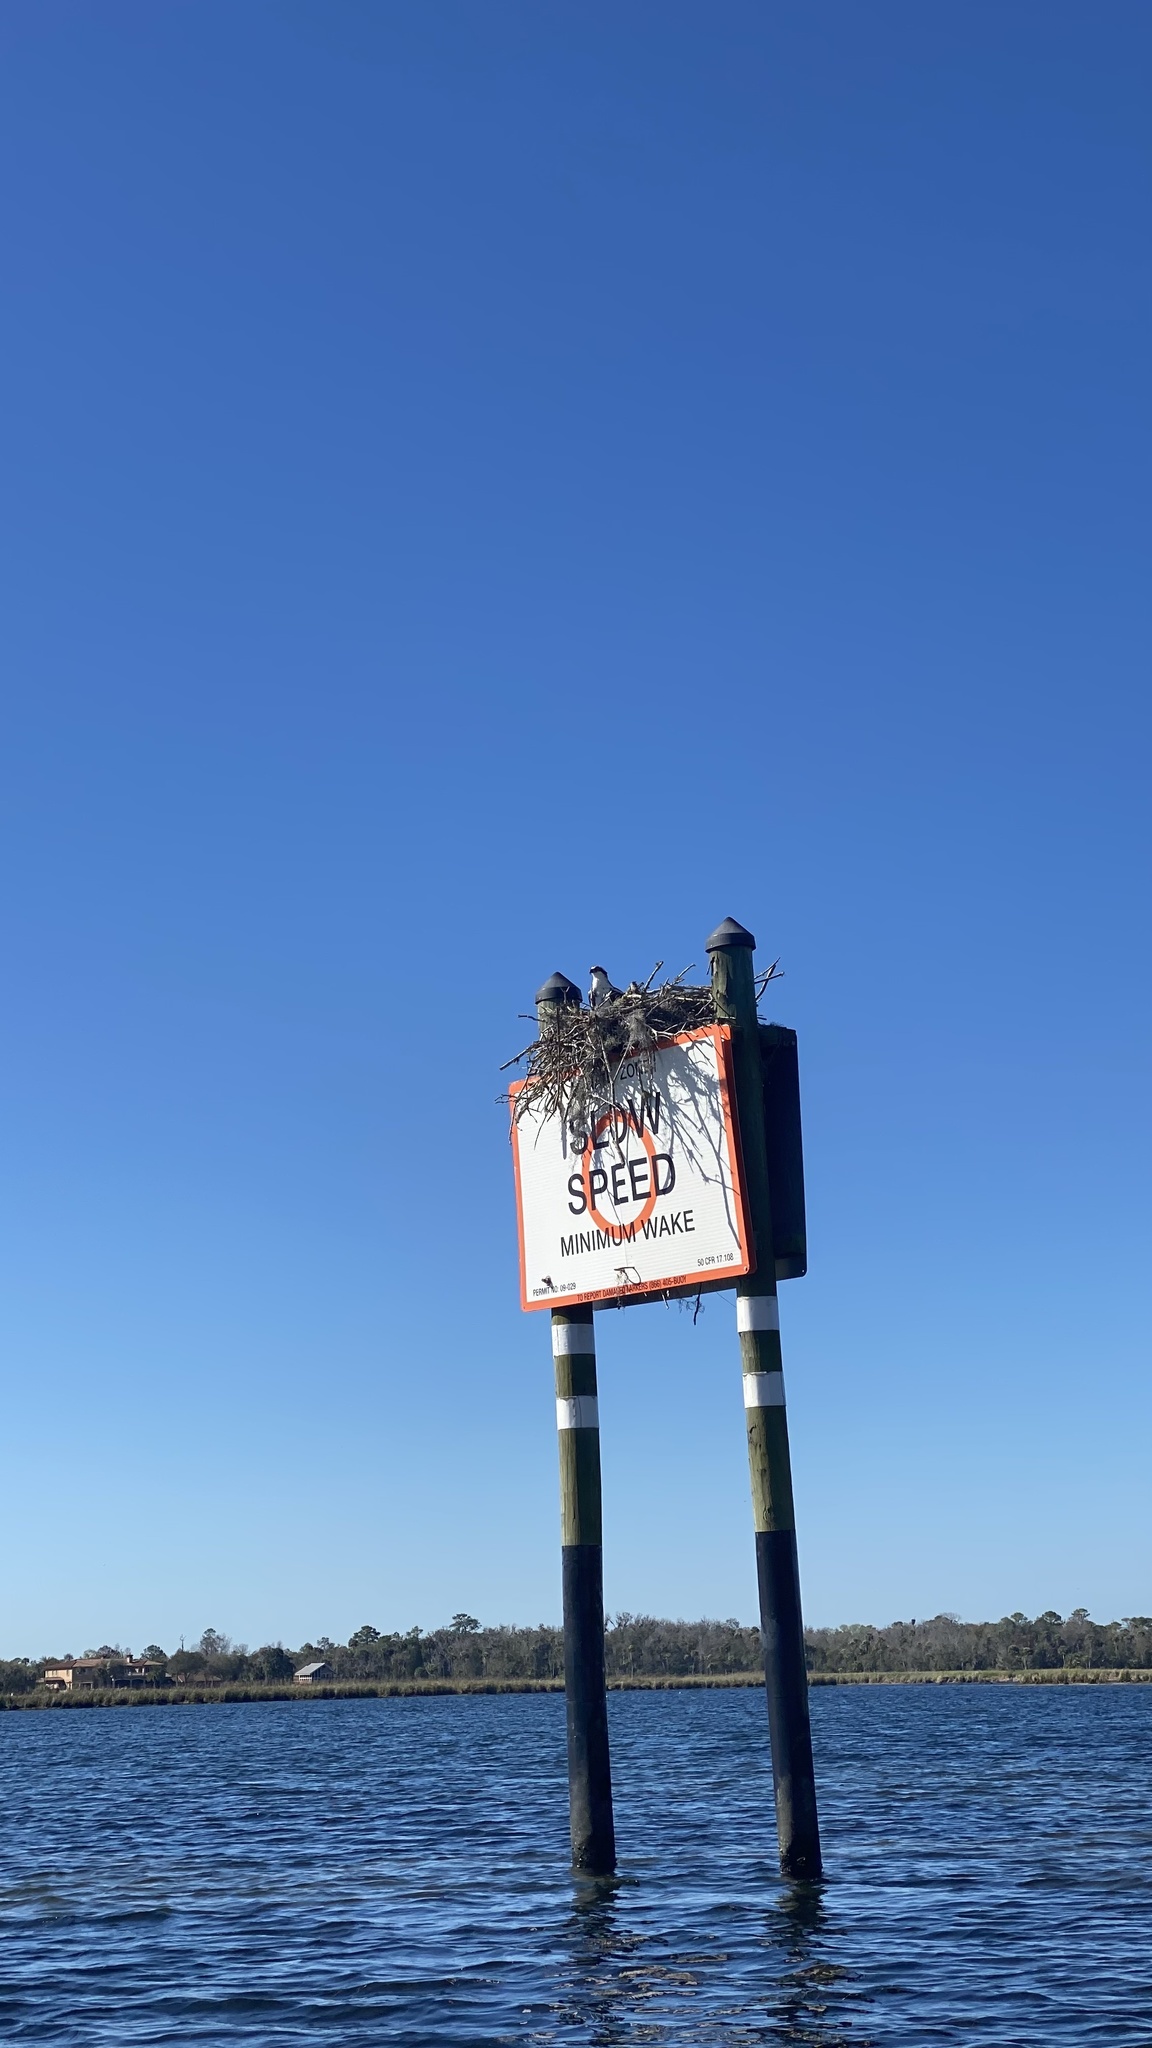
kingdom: Animalia
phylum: Chordata
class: Aves
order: Accipitriformes
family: Pandionidae
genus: Pandion
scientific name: Pandion haliaetus
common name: Osprey
